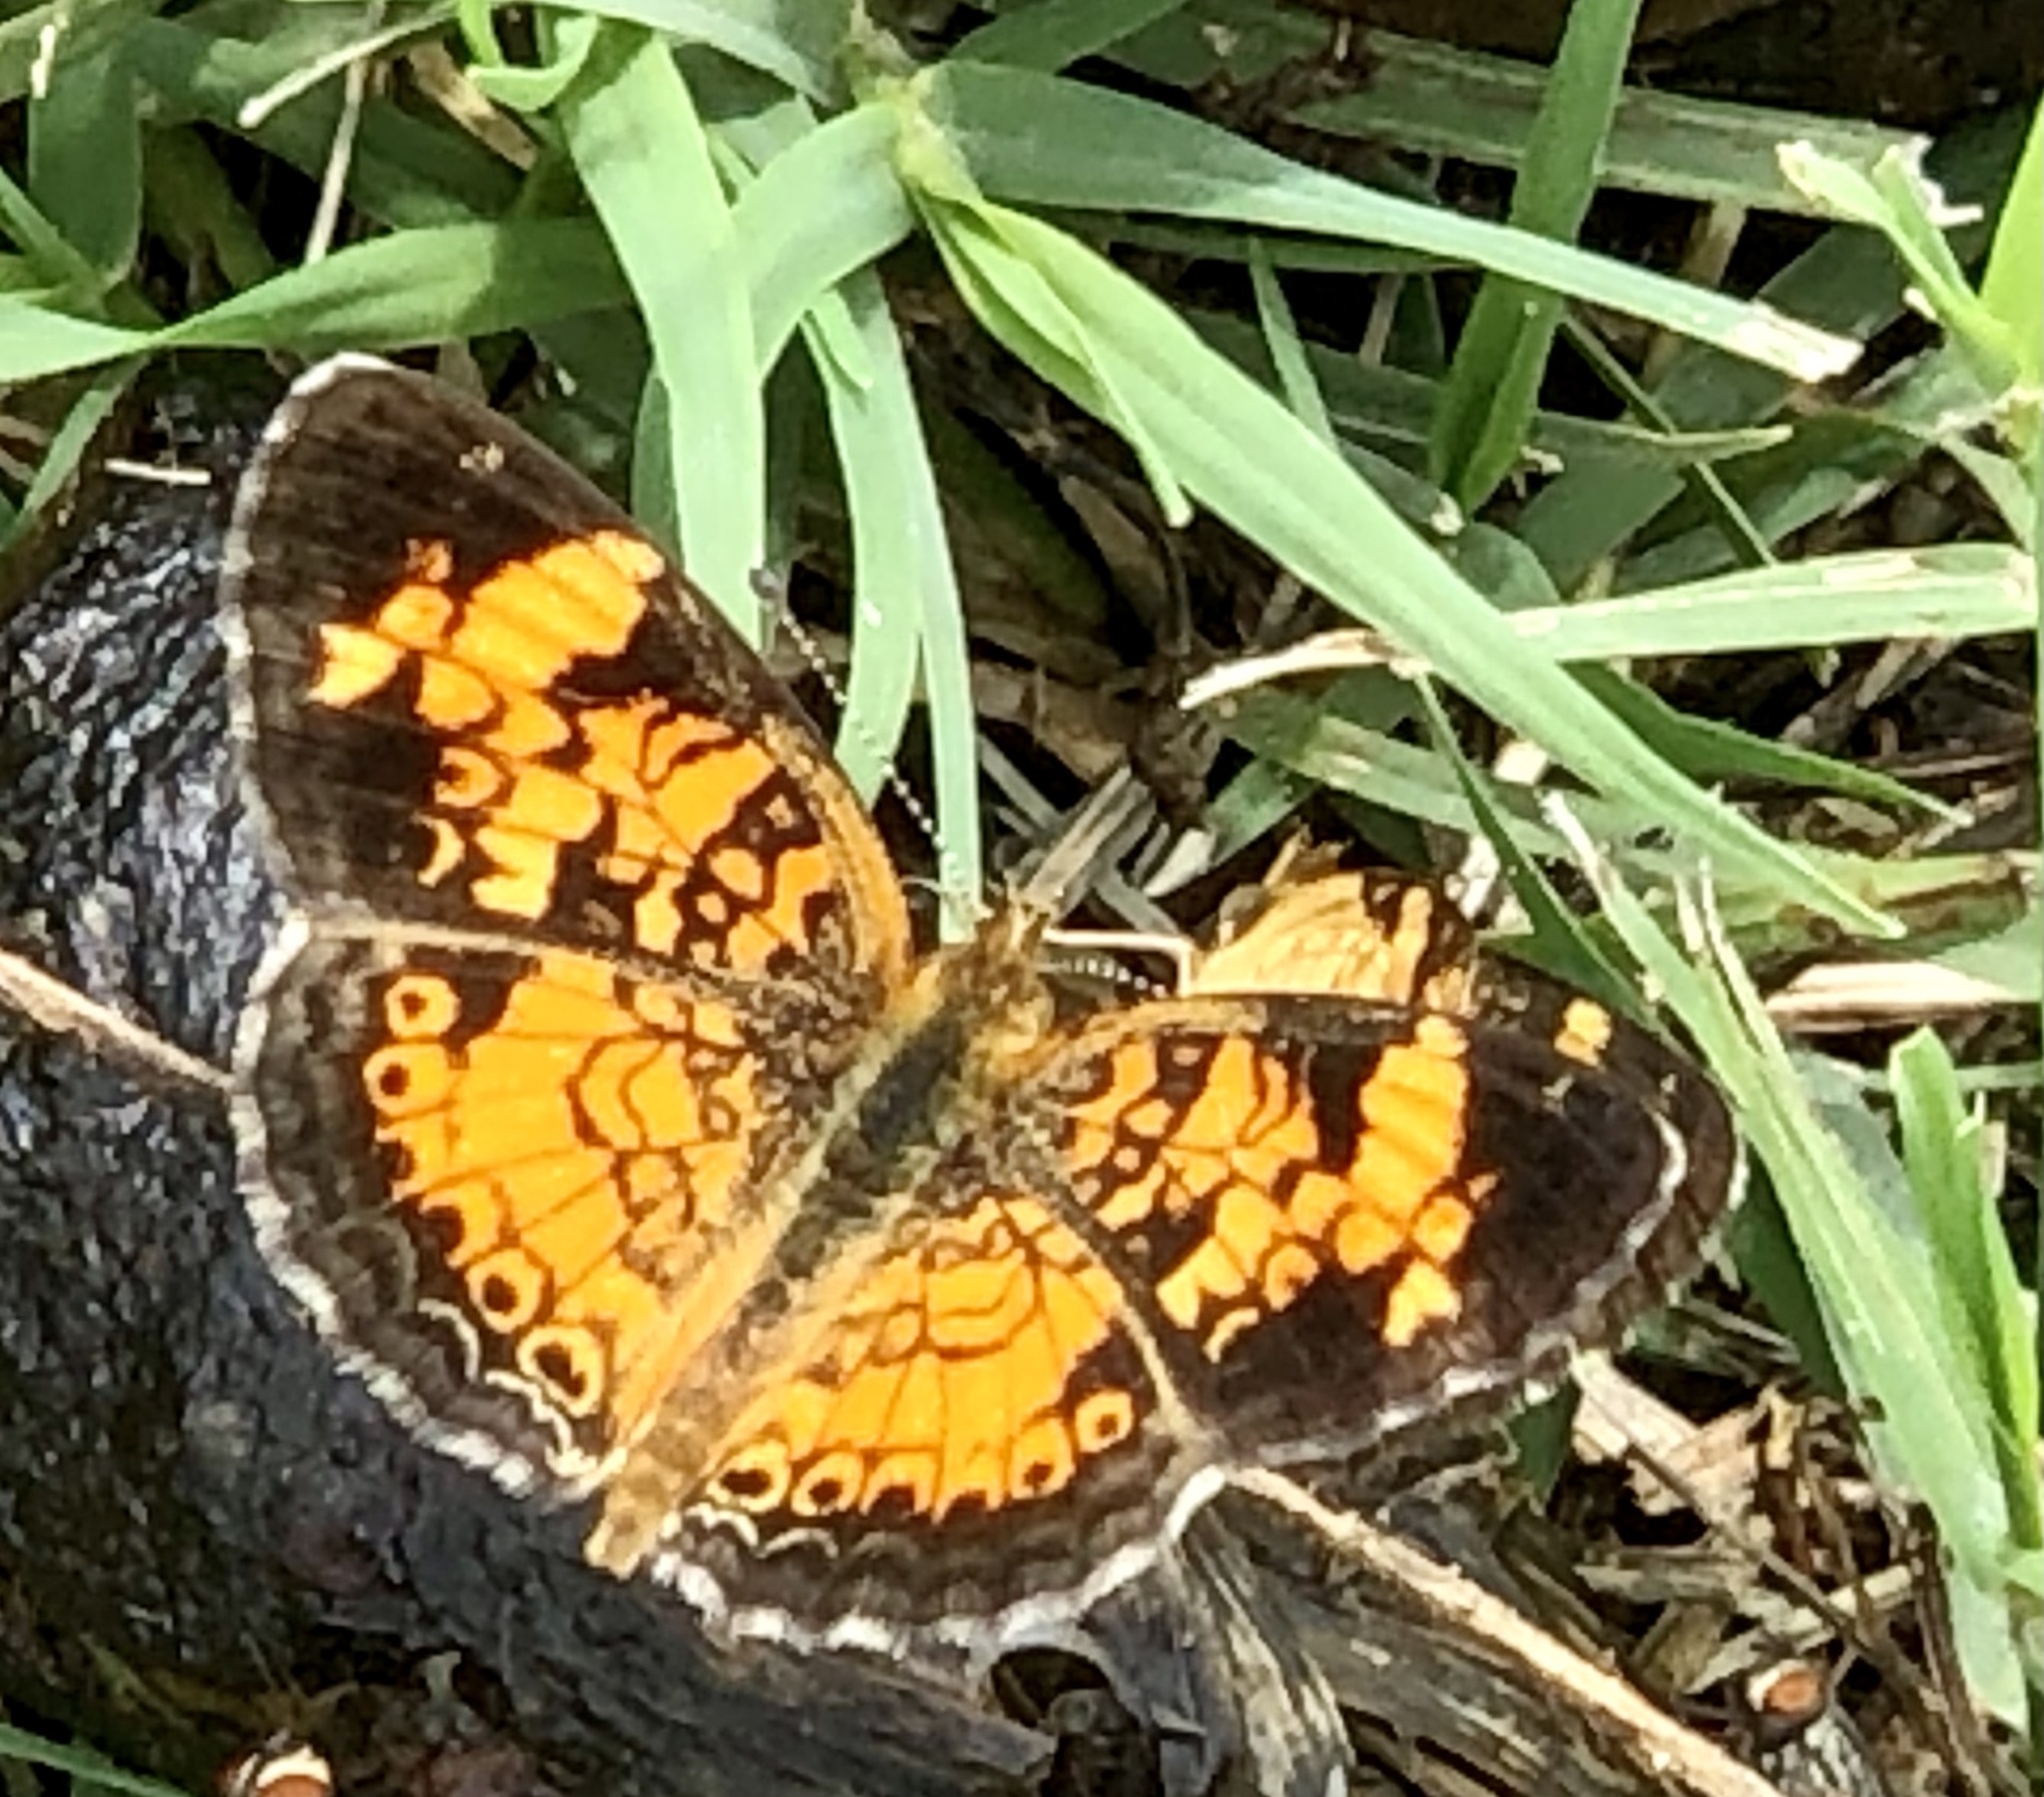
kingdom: Animalia
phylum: Arthropoda
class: Insecta
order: Lepidoptera
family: Nymphalidae
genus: Phyciodes
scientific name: Phyciodes tharos
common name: Pearl crescent
